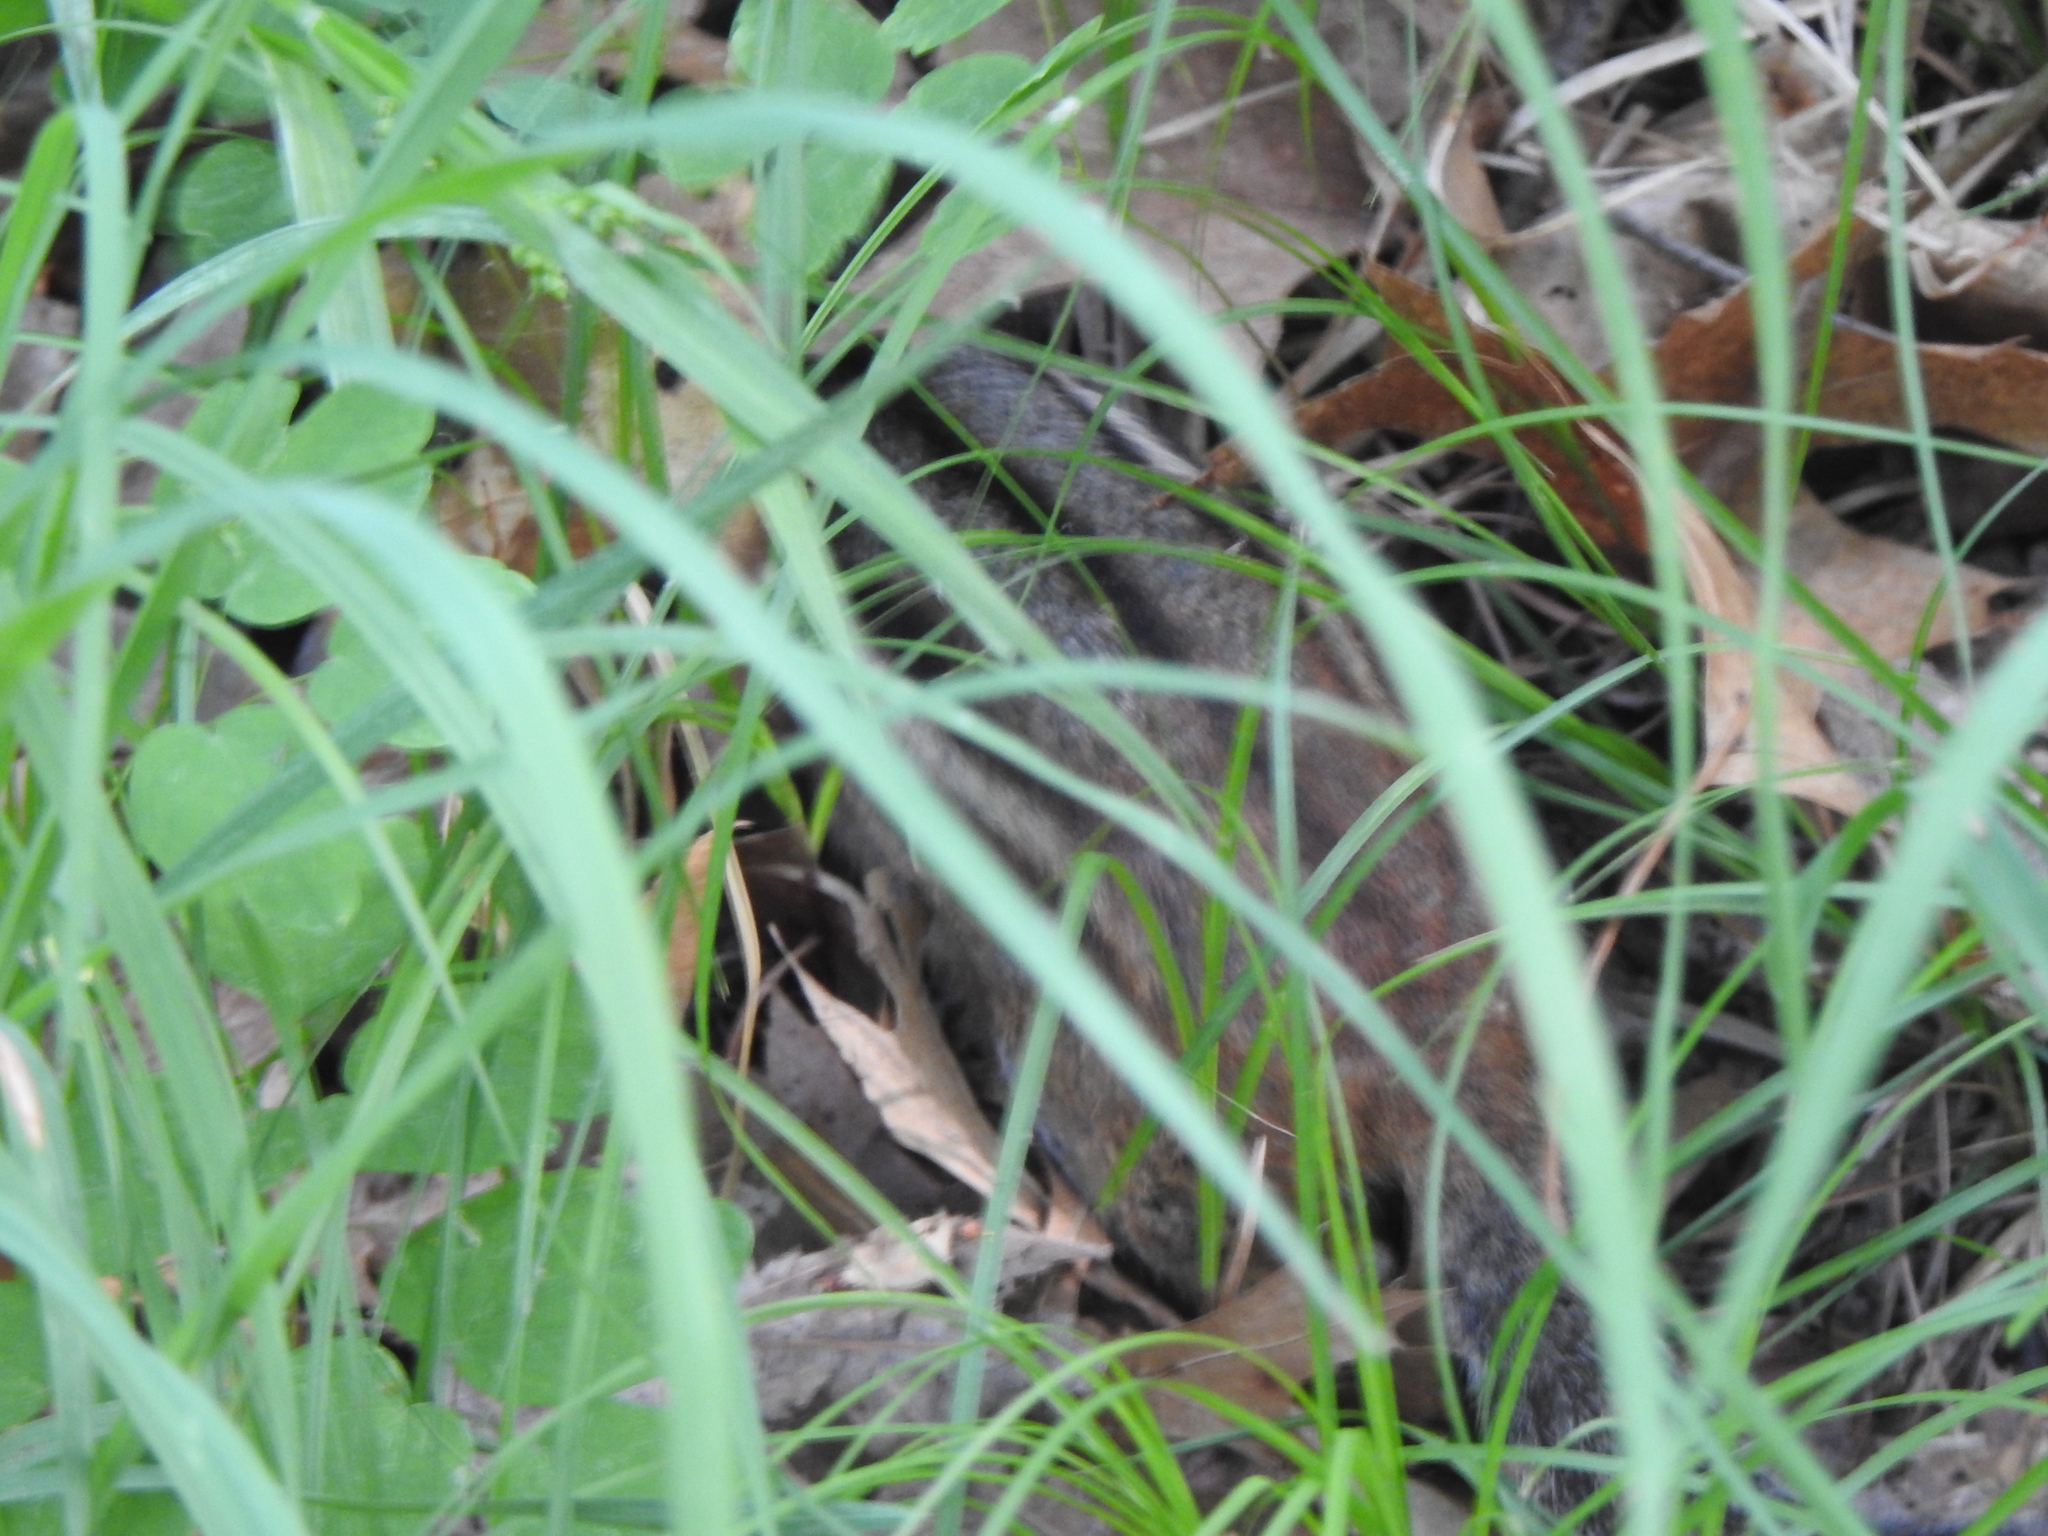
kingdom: Animalia
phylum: Chordata
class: Mammalia
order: Rodentia
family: Sciuridae
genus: Tamias
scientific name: Tamias striatus
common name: Eastern chipmunk
